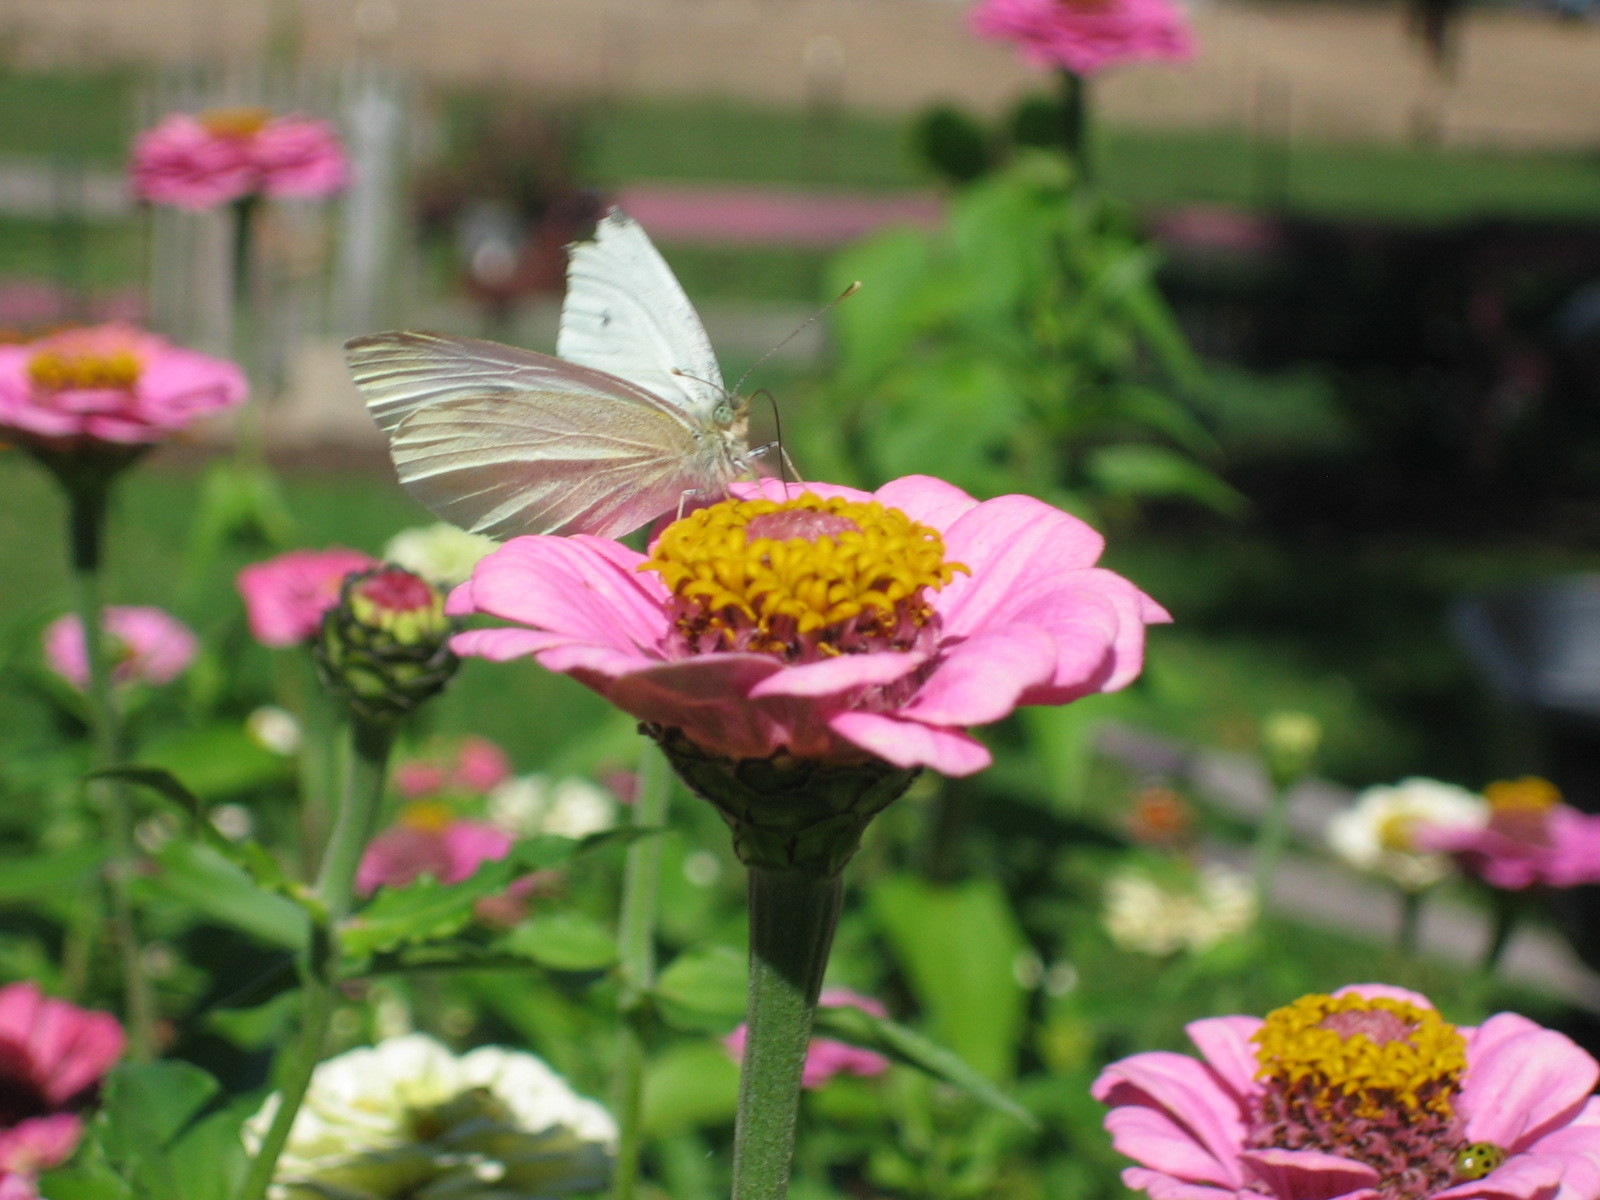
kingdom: Animalia
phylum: Arthropoda
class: Insecta
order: Lepidoptera
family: Pieridae
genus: Pieris
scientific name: Pieris rapae
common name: Small white
